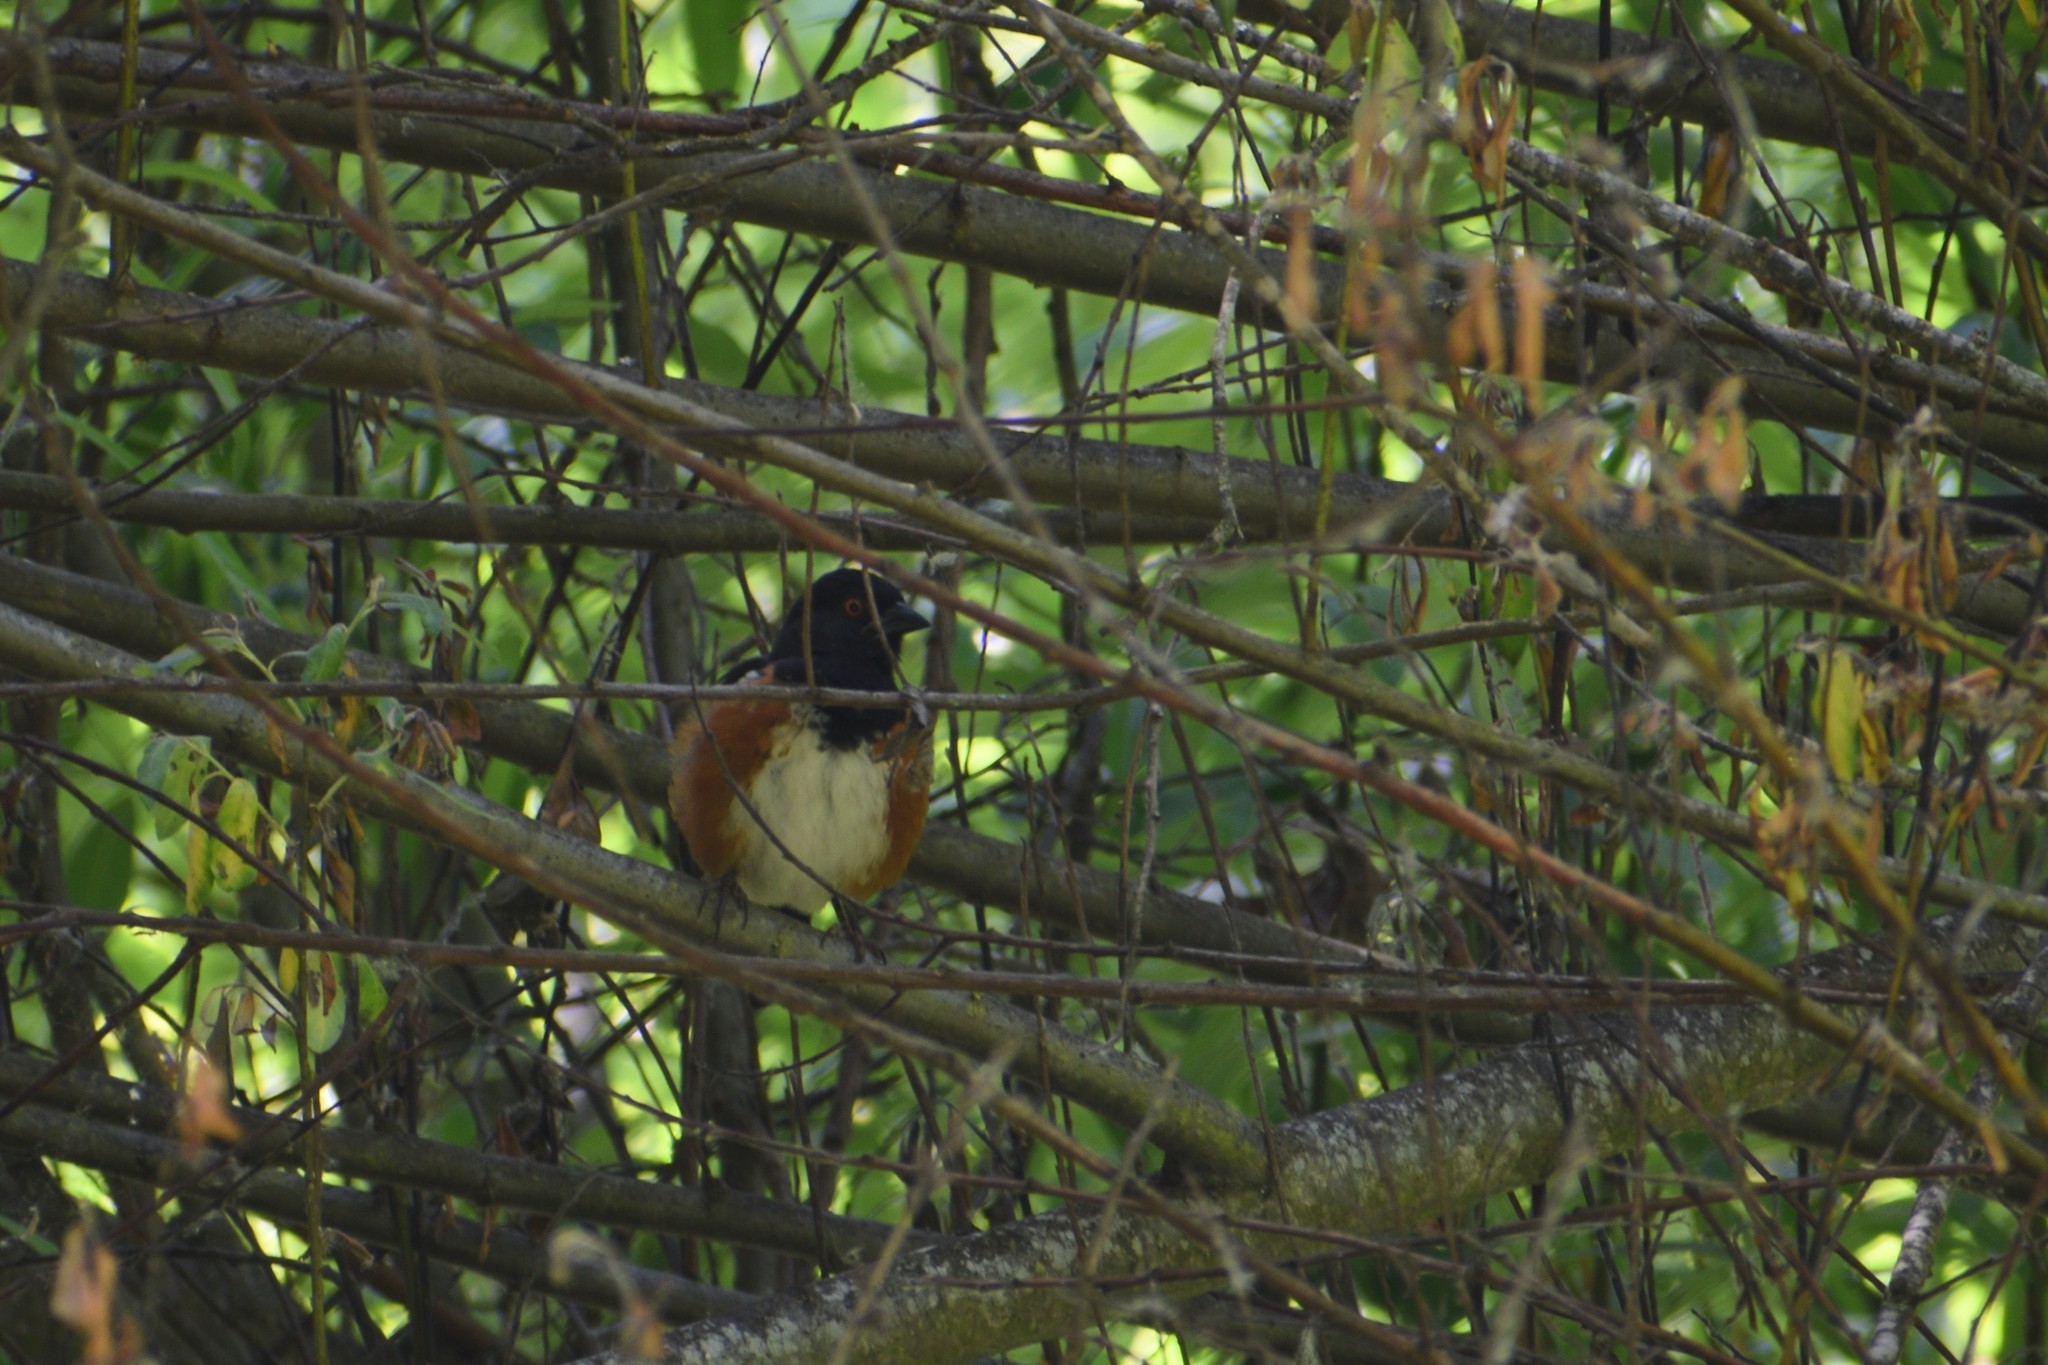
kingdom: Animalia
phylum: Chordata
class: Aves
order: Passeriformes
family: Passerellidae
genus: Pipilo
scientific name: Pipilo maculatus
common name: Spotted towhee
